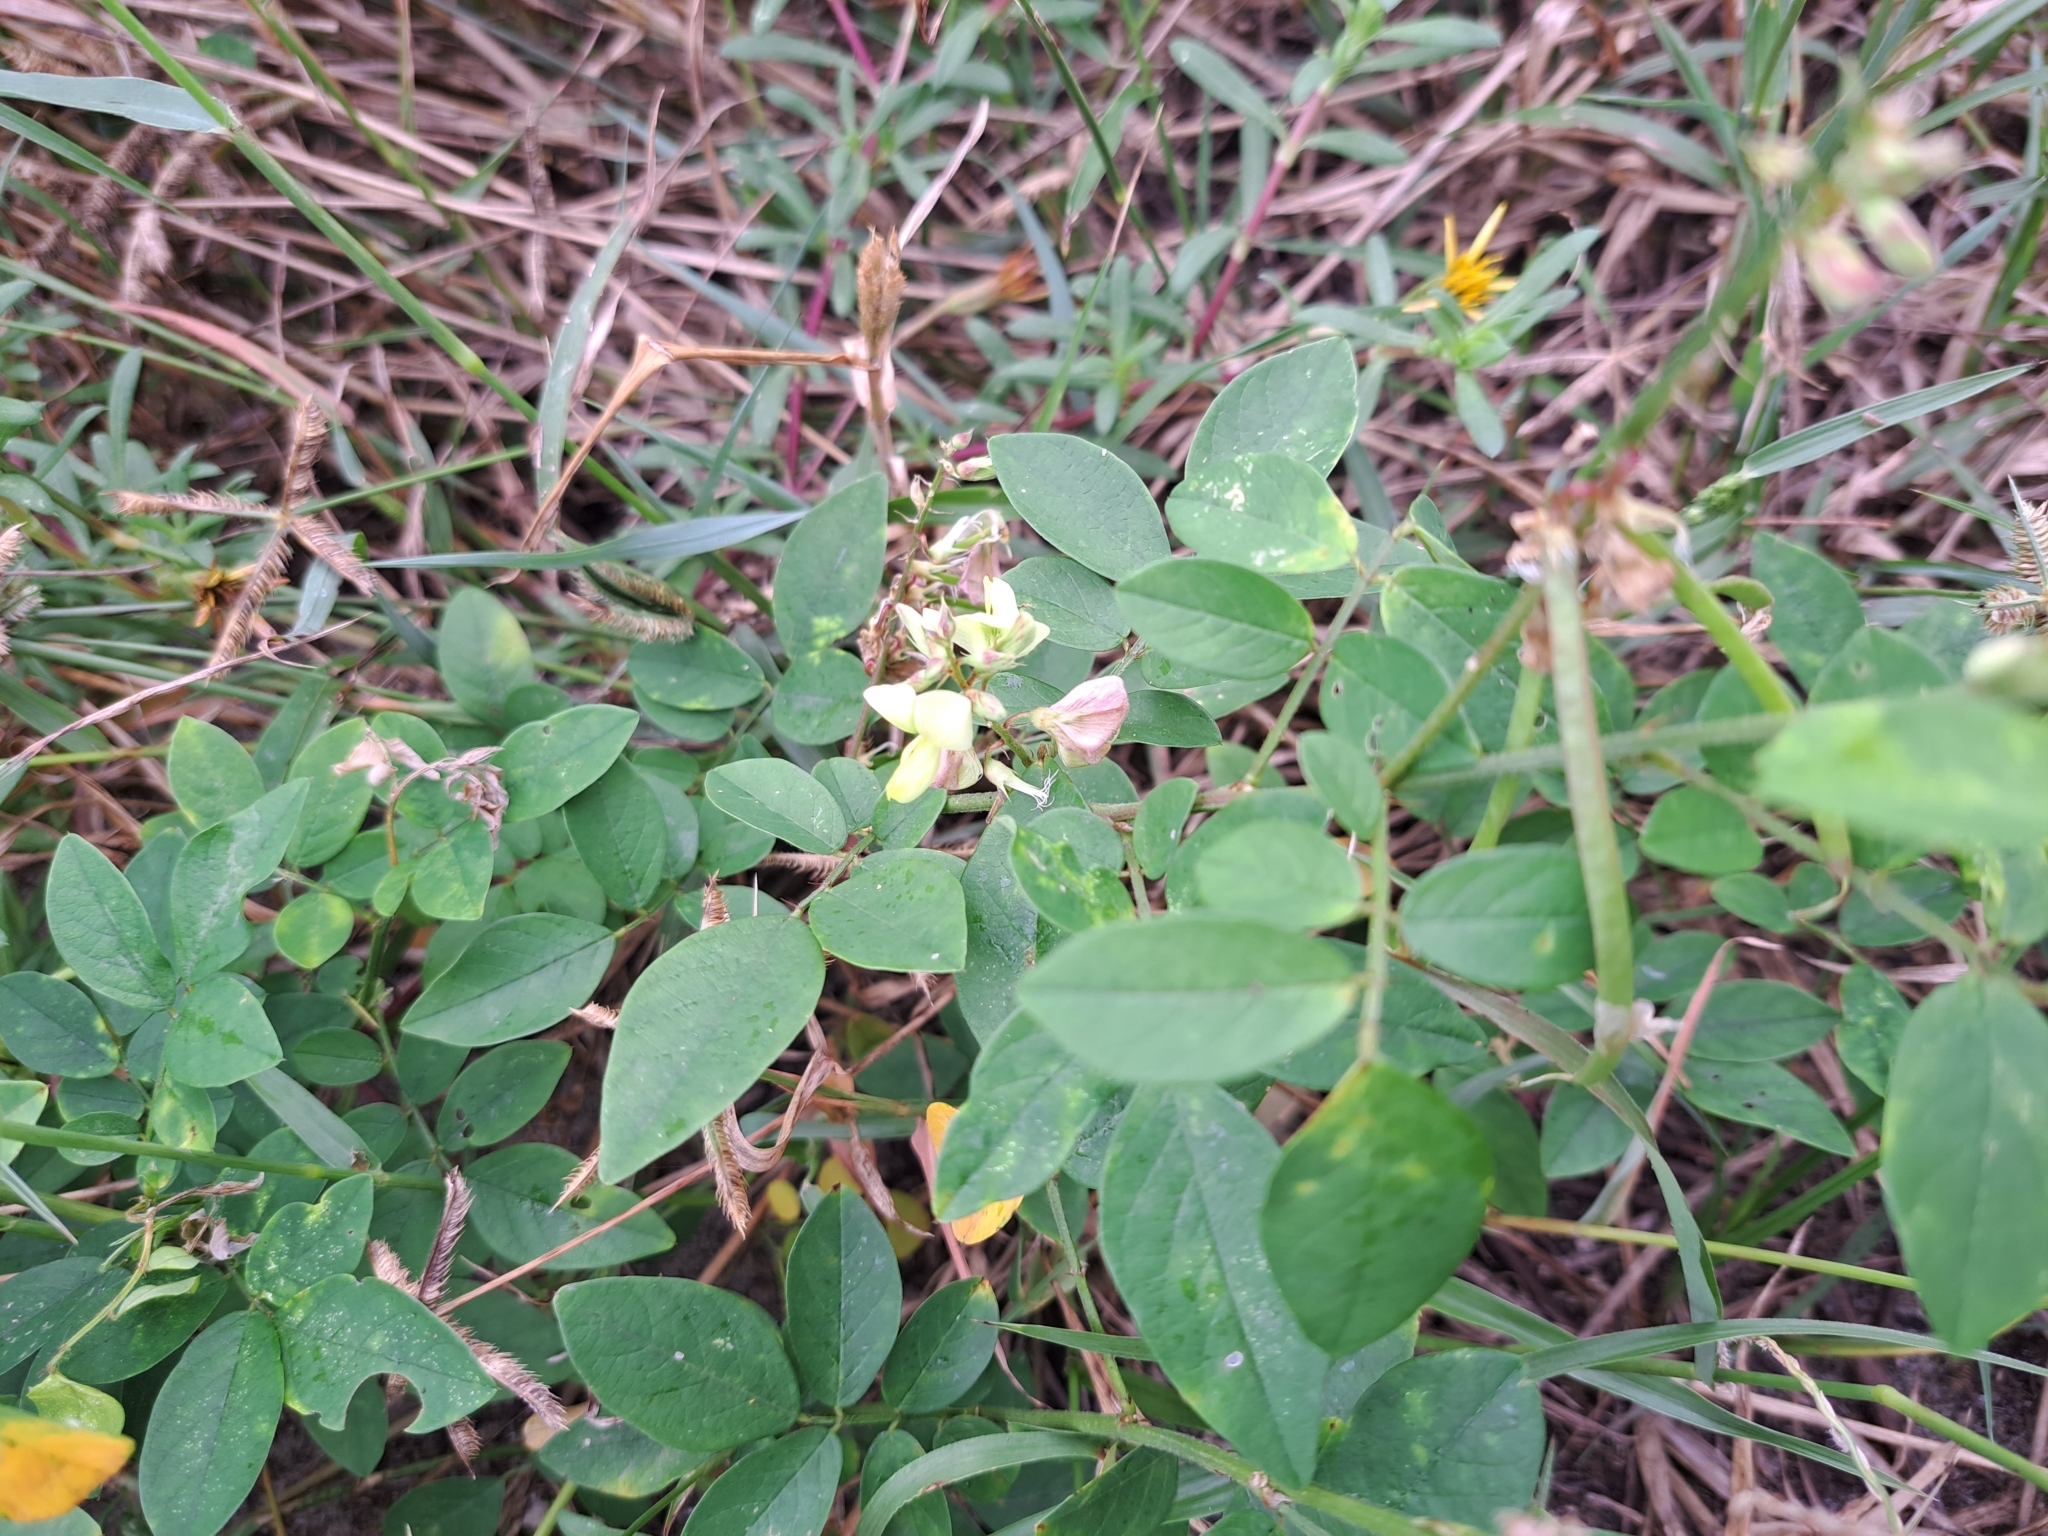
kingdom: Plantae
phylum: Tracheophyta
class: Magnoliopsida
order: Fabales
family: Fabaceae
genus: Coursetia
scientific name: Coursetia caribaea
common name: Anil falso
